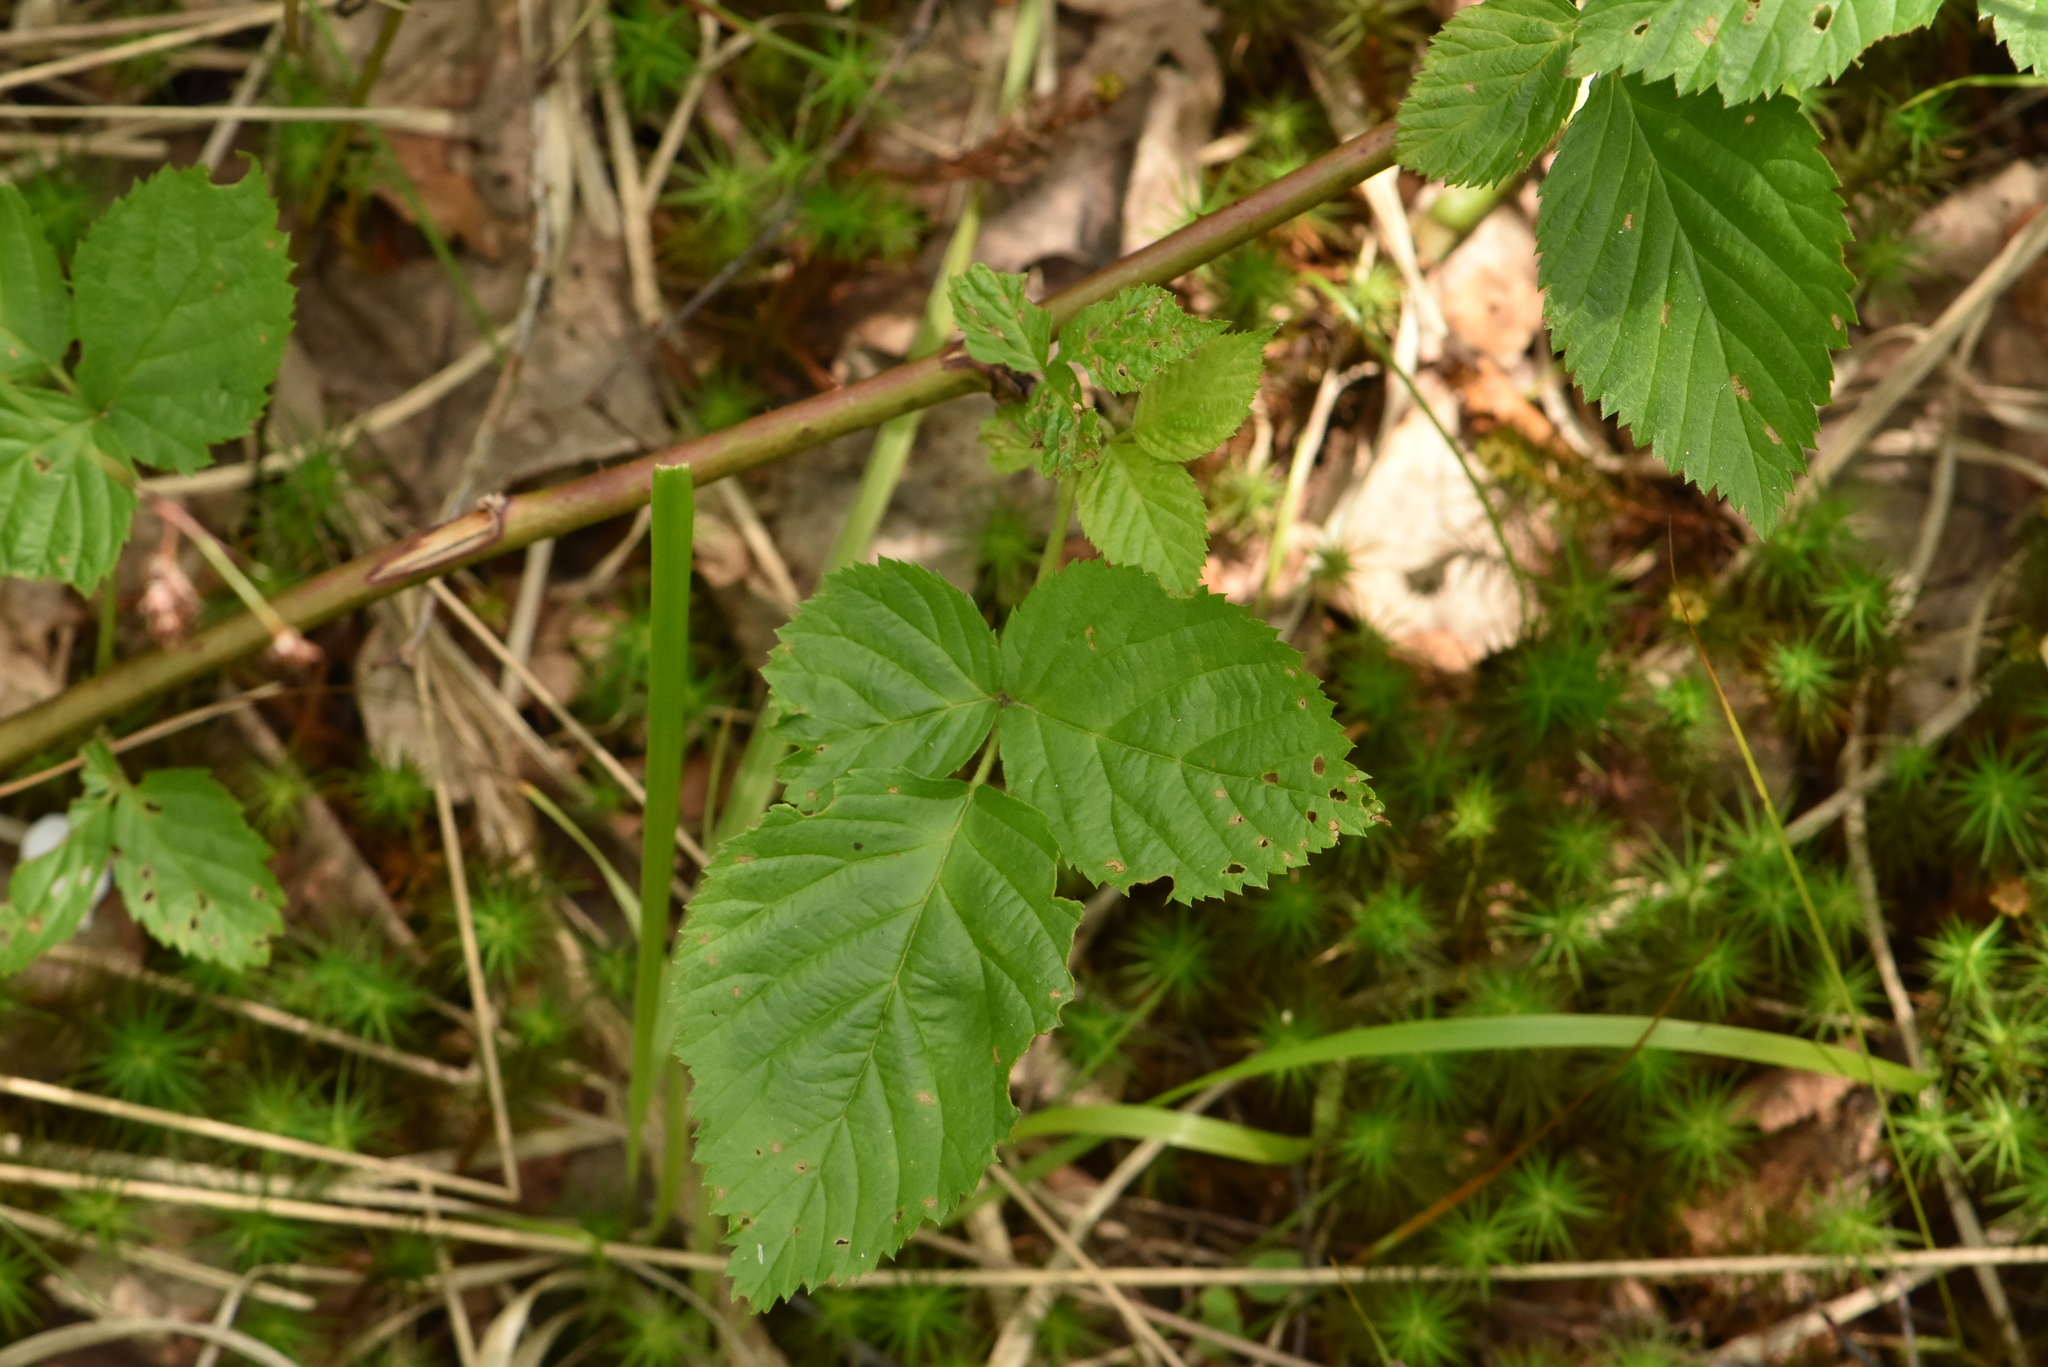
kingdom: Plantae
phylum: Tracheophyta
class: Magnoliopsida
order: Rosales
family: Rosaceae
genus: Rubus
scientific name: Rubus polonicus
